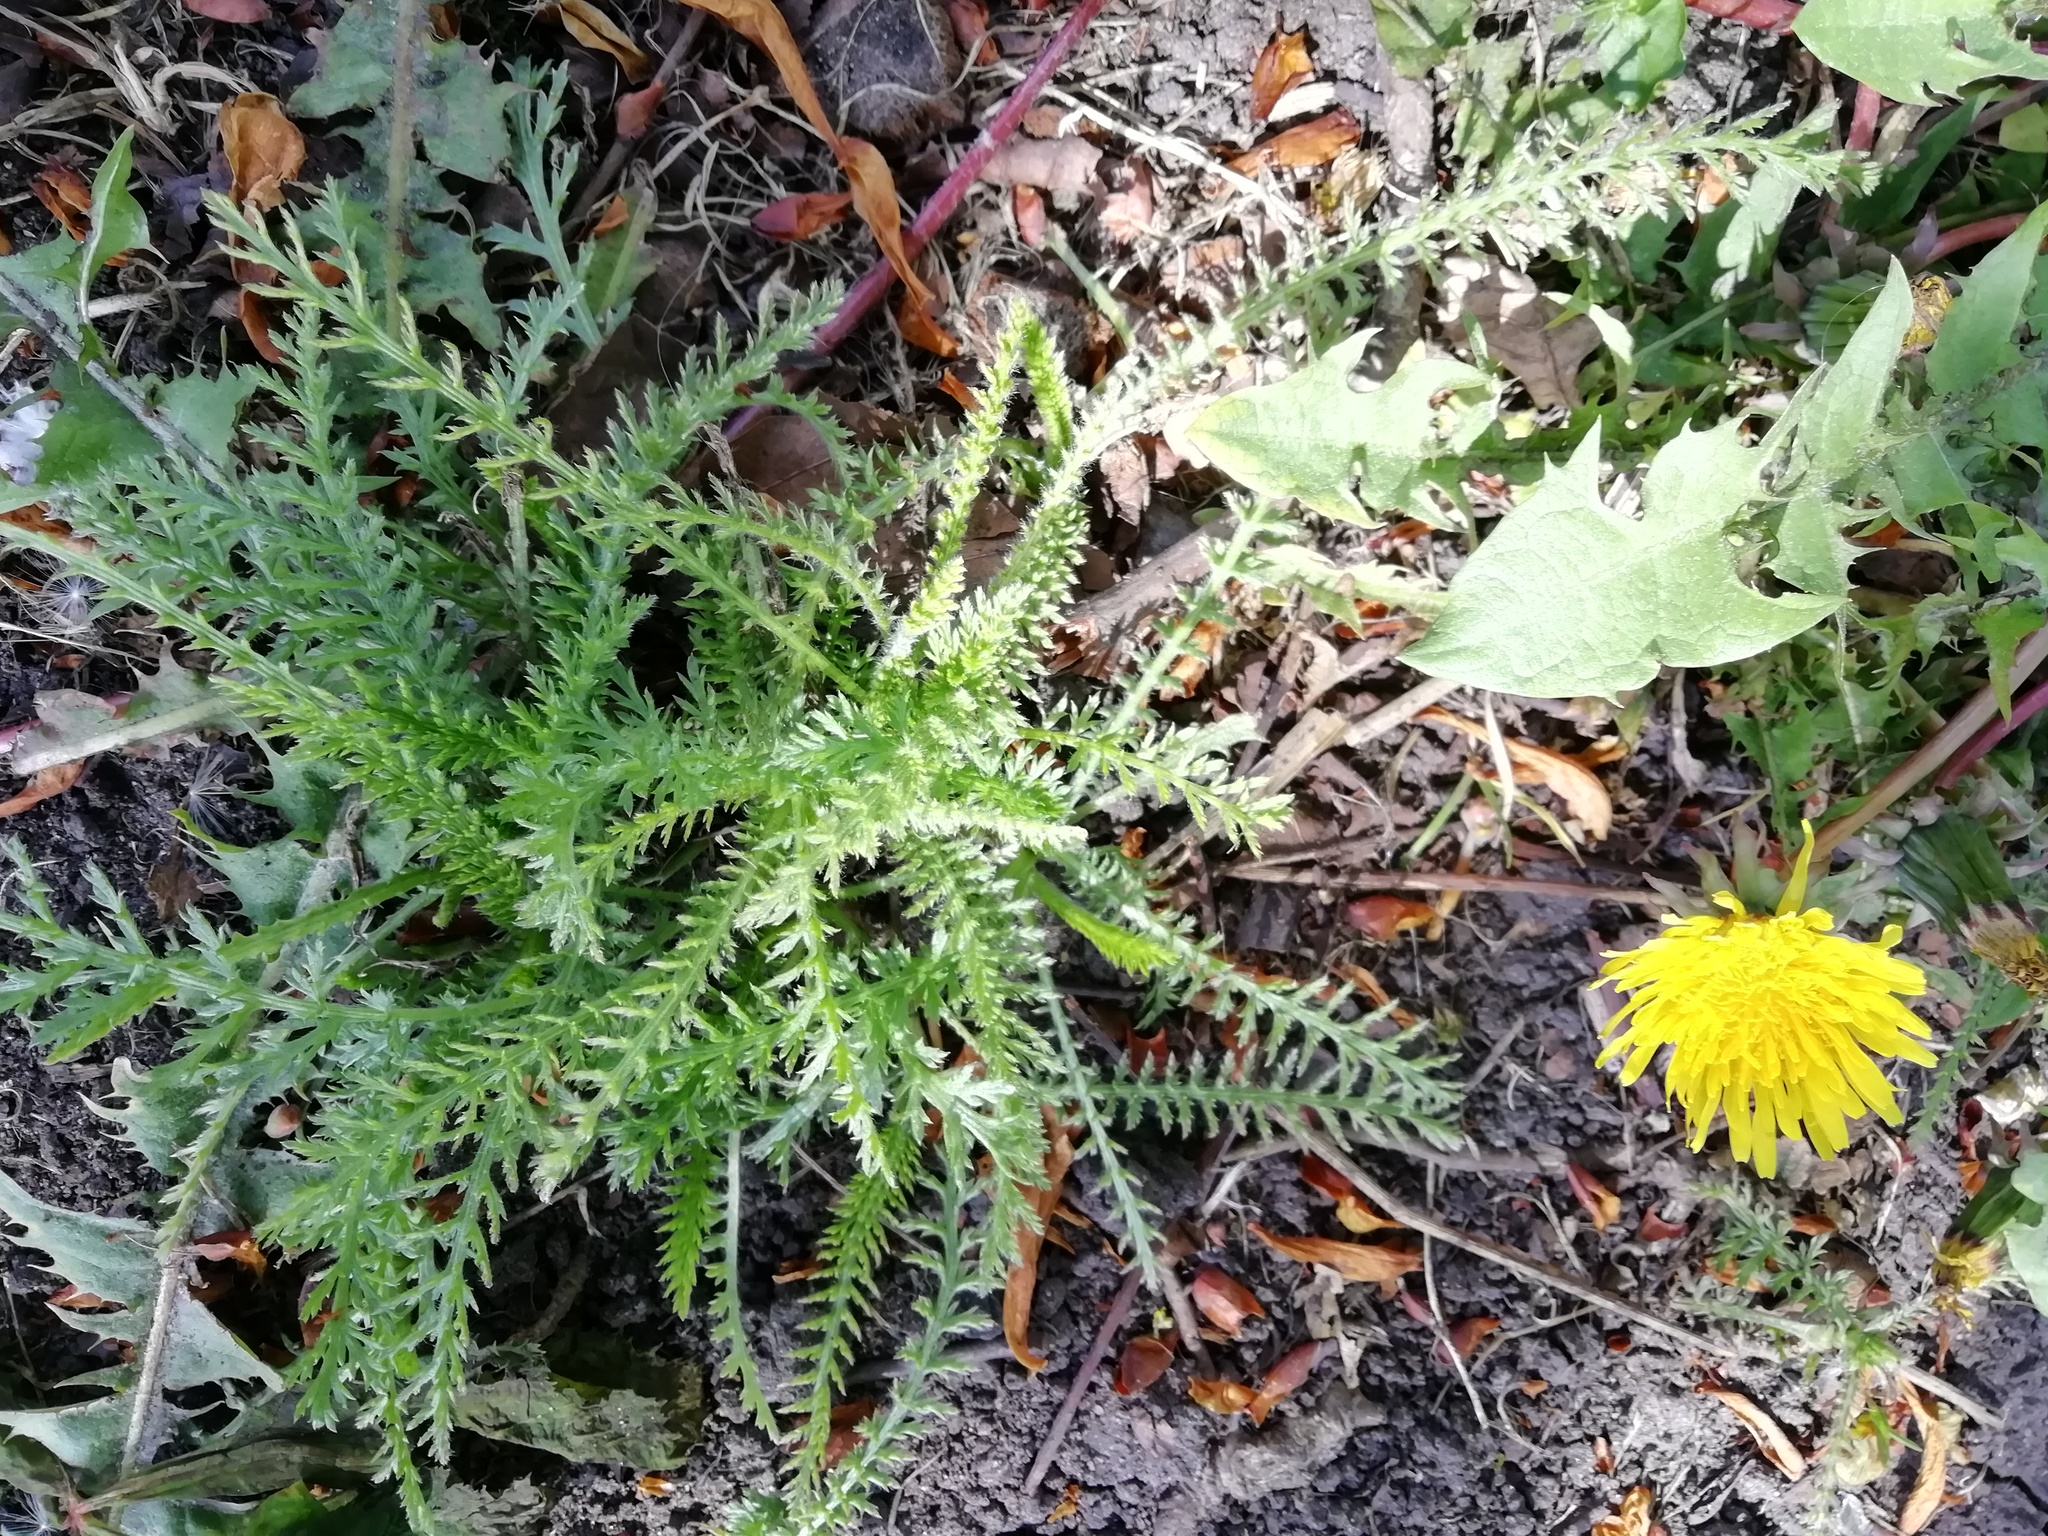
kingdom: Plantae
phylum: Tracheophyta
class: Magnoliopsida
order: Asterales
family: Asteraceae
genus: Achillea
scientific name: Achillea millefolium
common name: Yarrow
